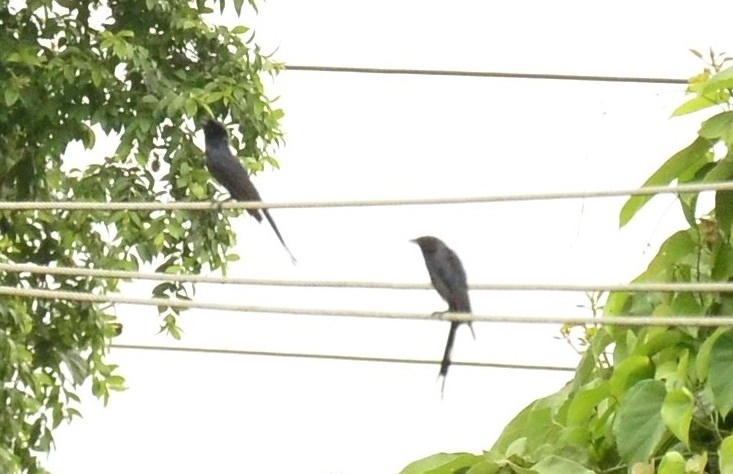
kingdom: Animalia
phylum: Chordata
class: Aves
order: Passeriformes
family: Dicruridae
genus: Dicrurus
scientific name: Dicrurus macrocercus
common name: Black drongo
